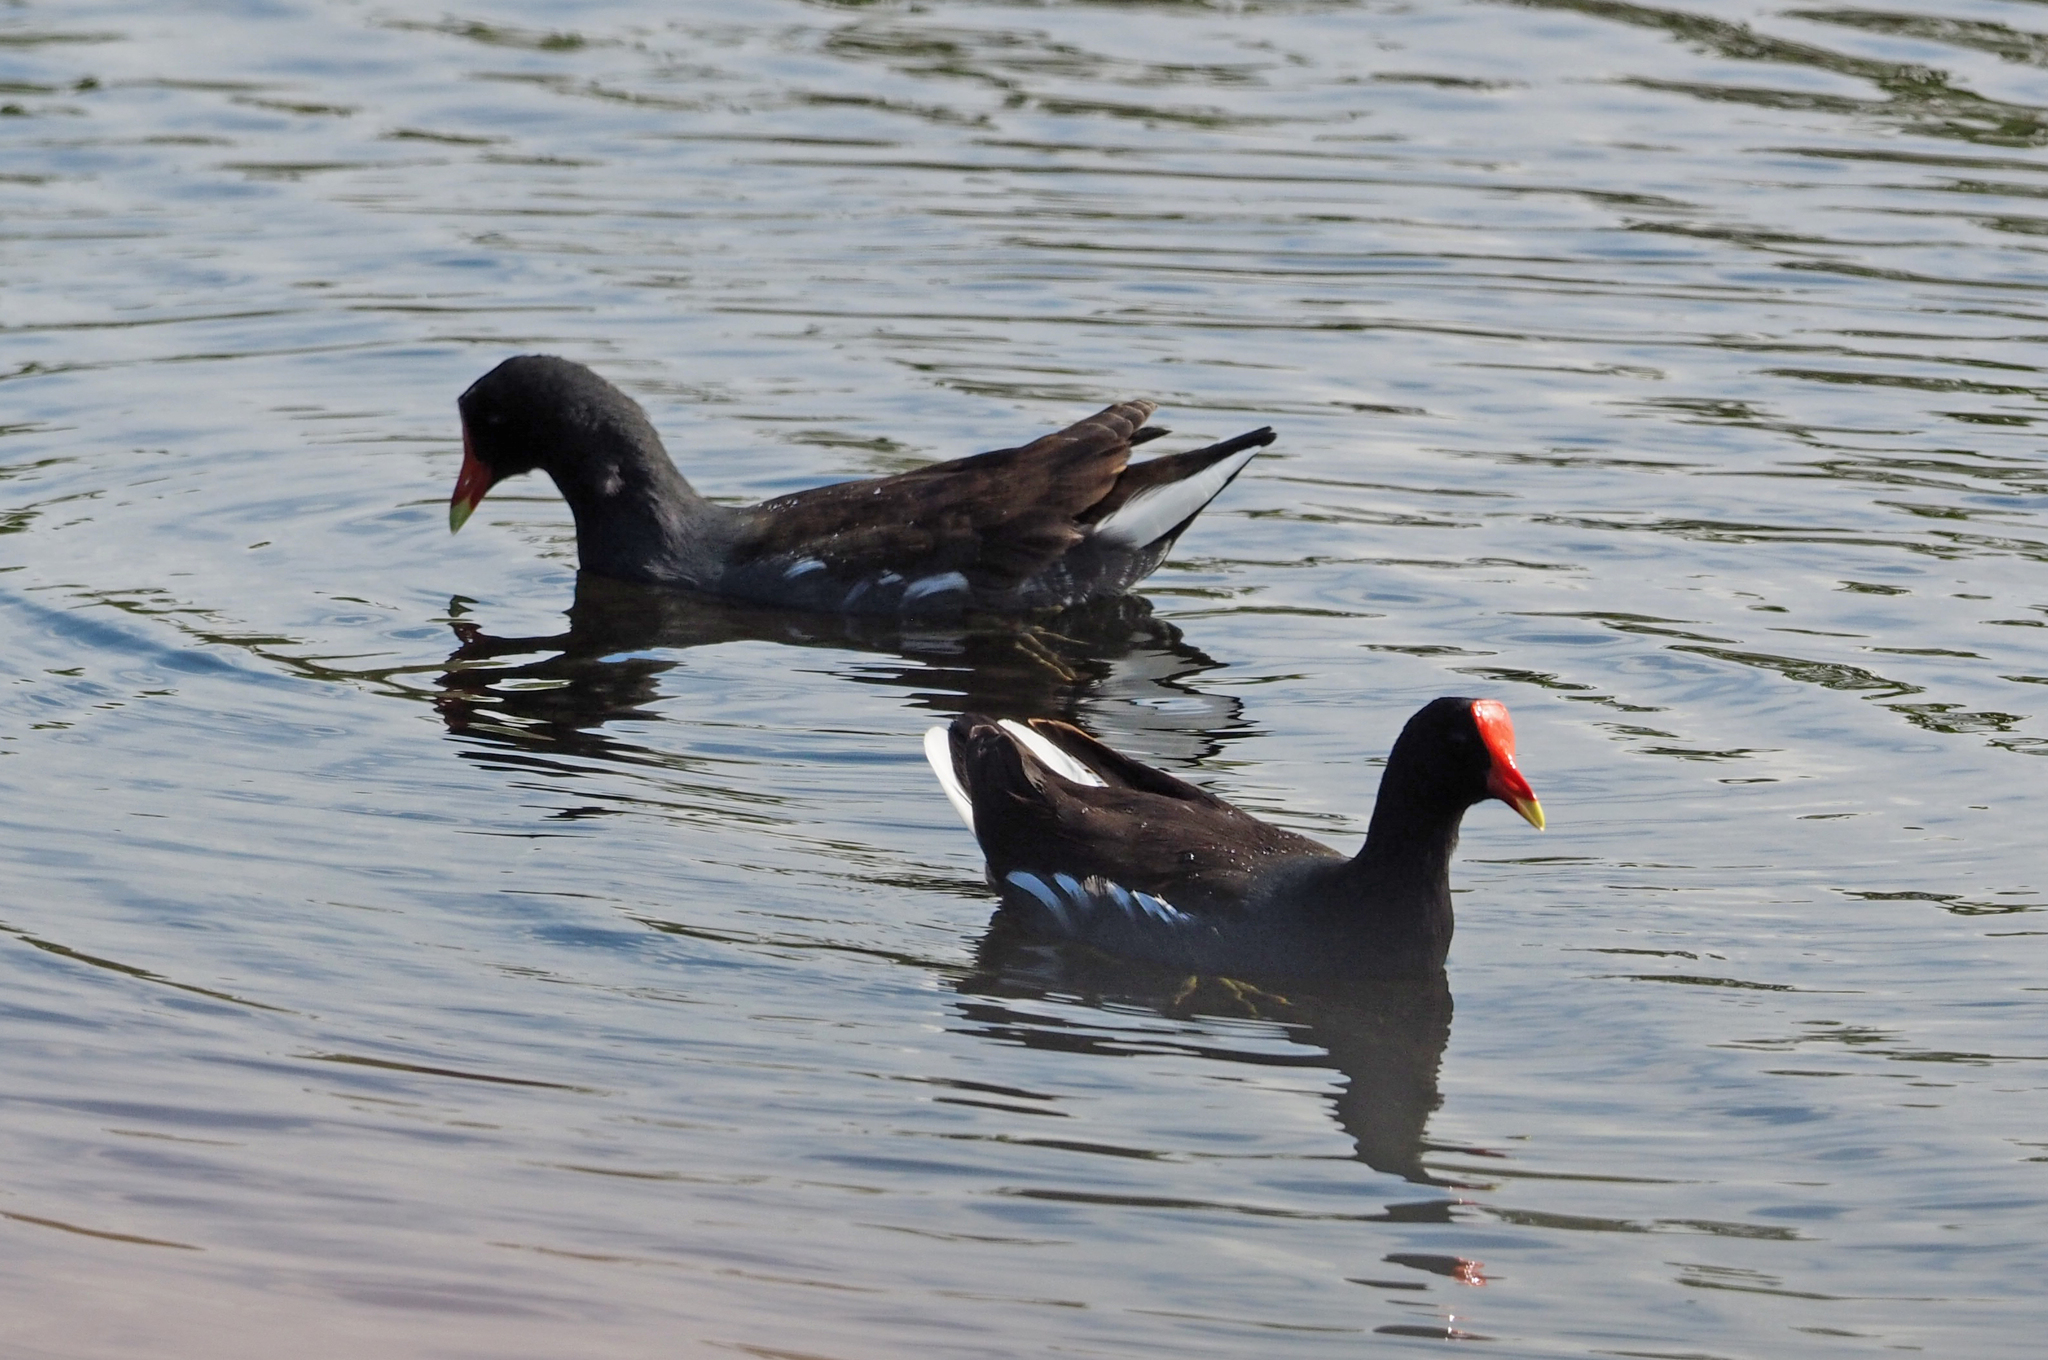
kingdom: Animalia
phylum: Chordata
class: Aves
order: Gruiformes
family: Rallidae
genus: Gallinula
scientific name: Gallinula chloropus
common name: Common moorhen
